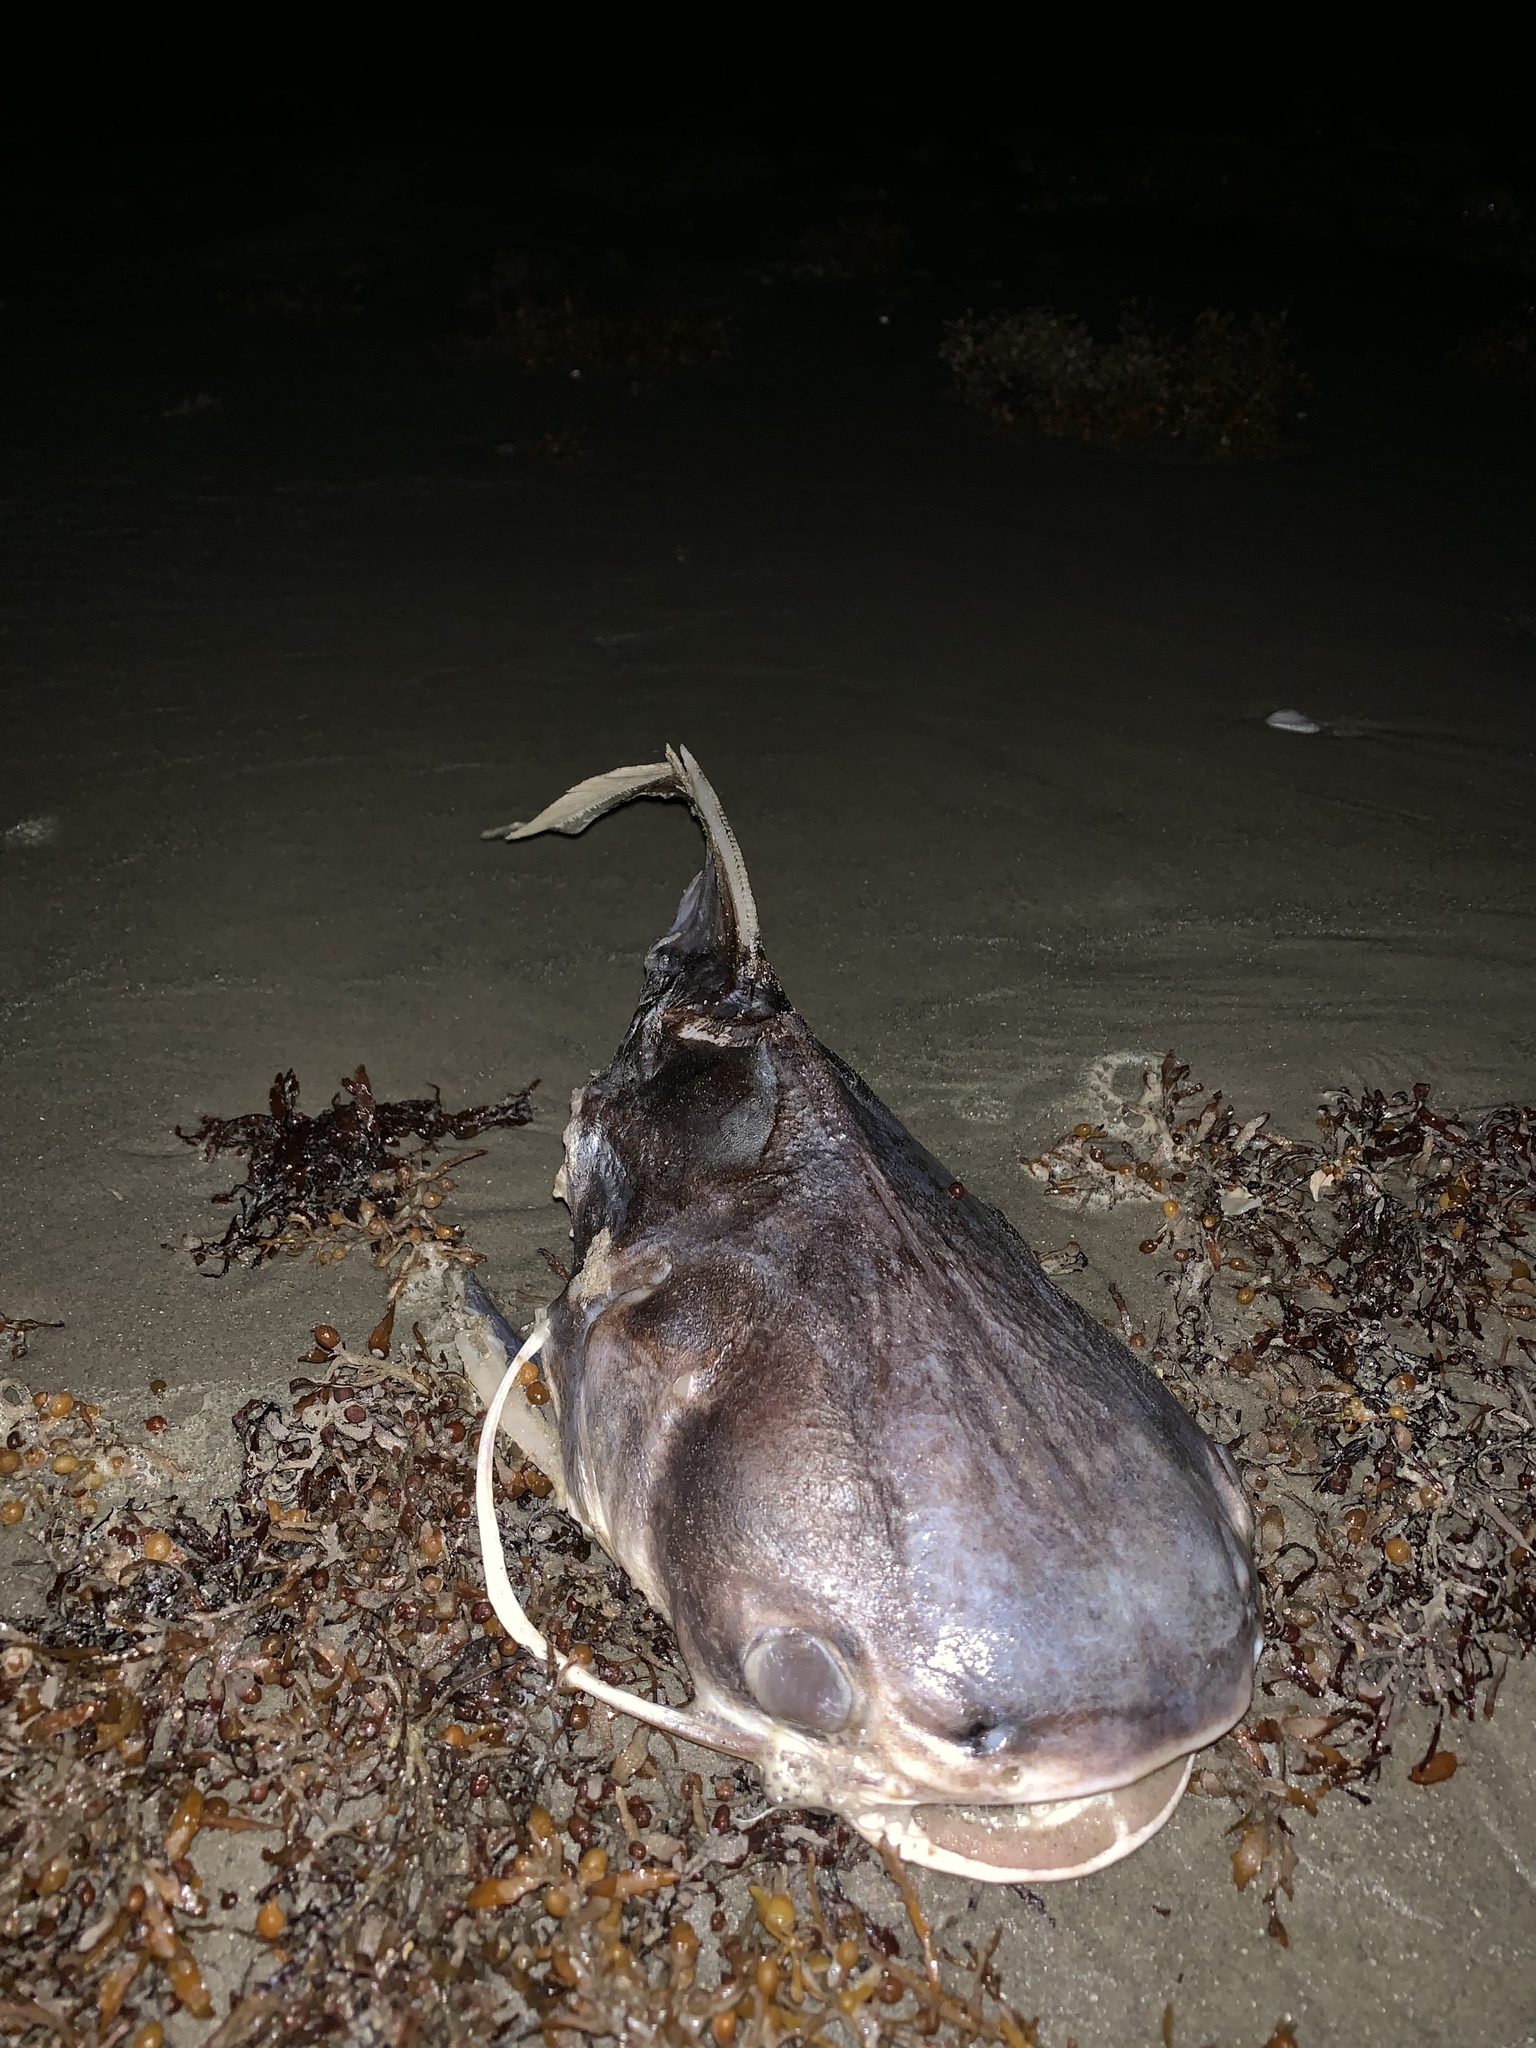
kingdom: Animalia
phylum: Chordata
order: Siluriformes
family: Ariidae
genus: Bagre
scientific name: Bagre marinus
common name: Gafftopsail sea catfish
